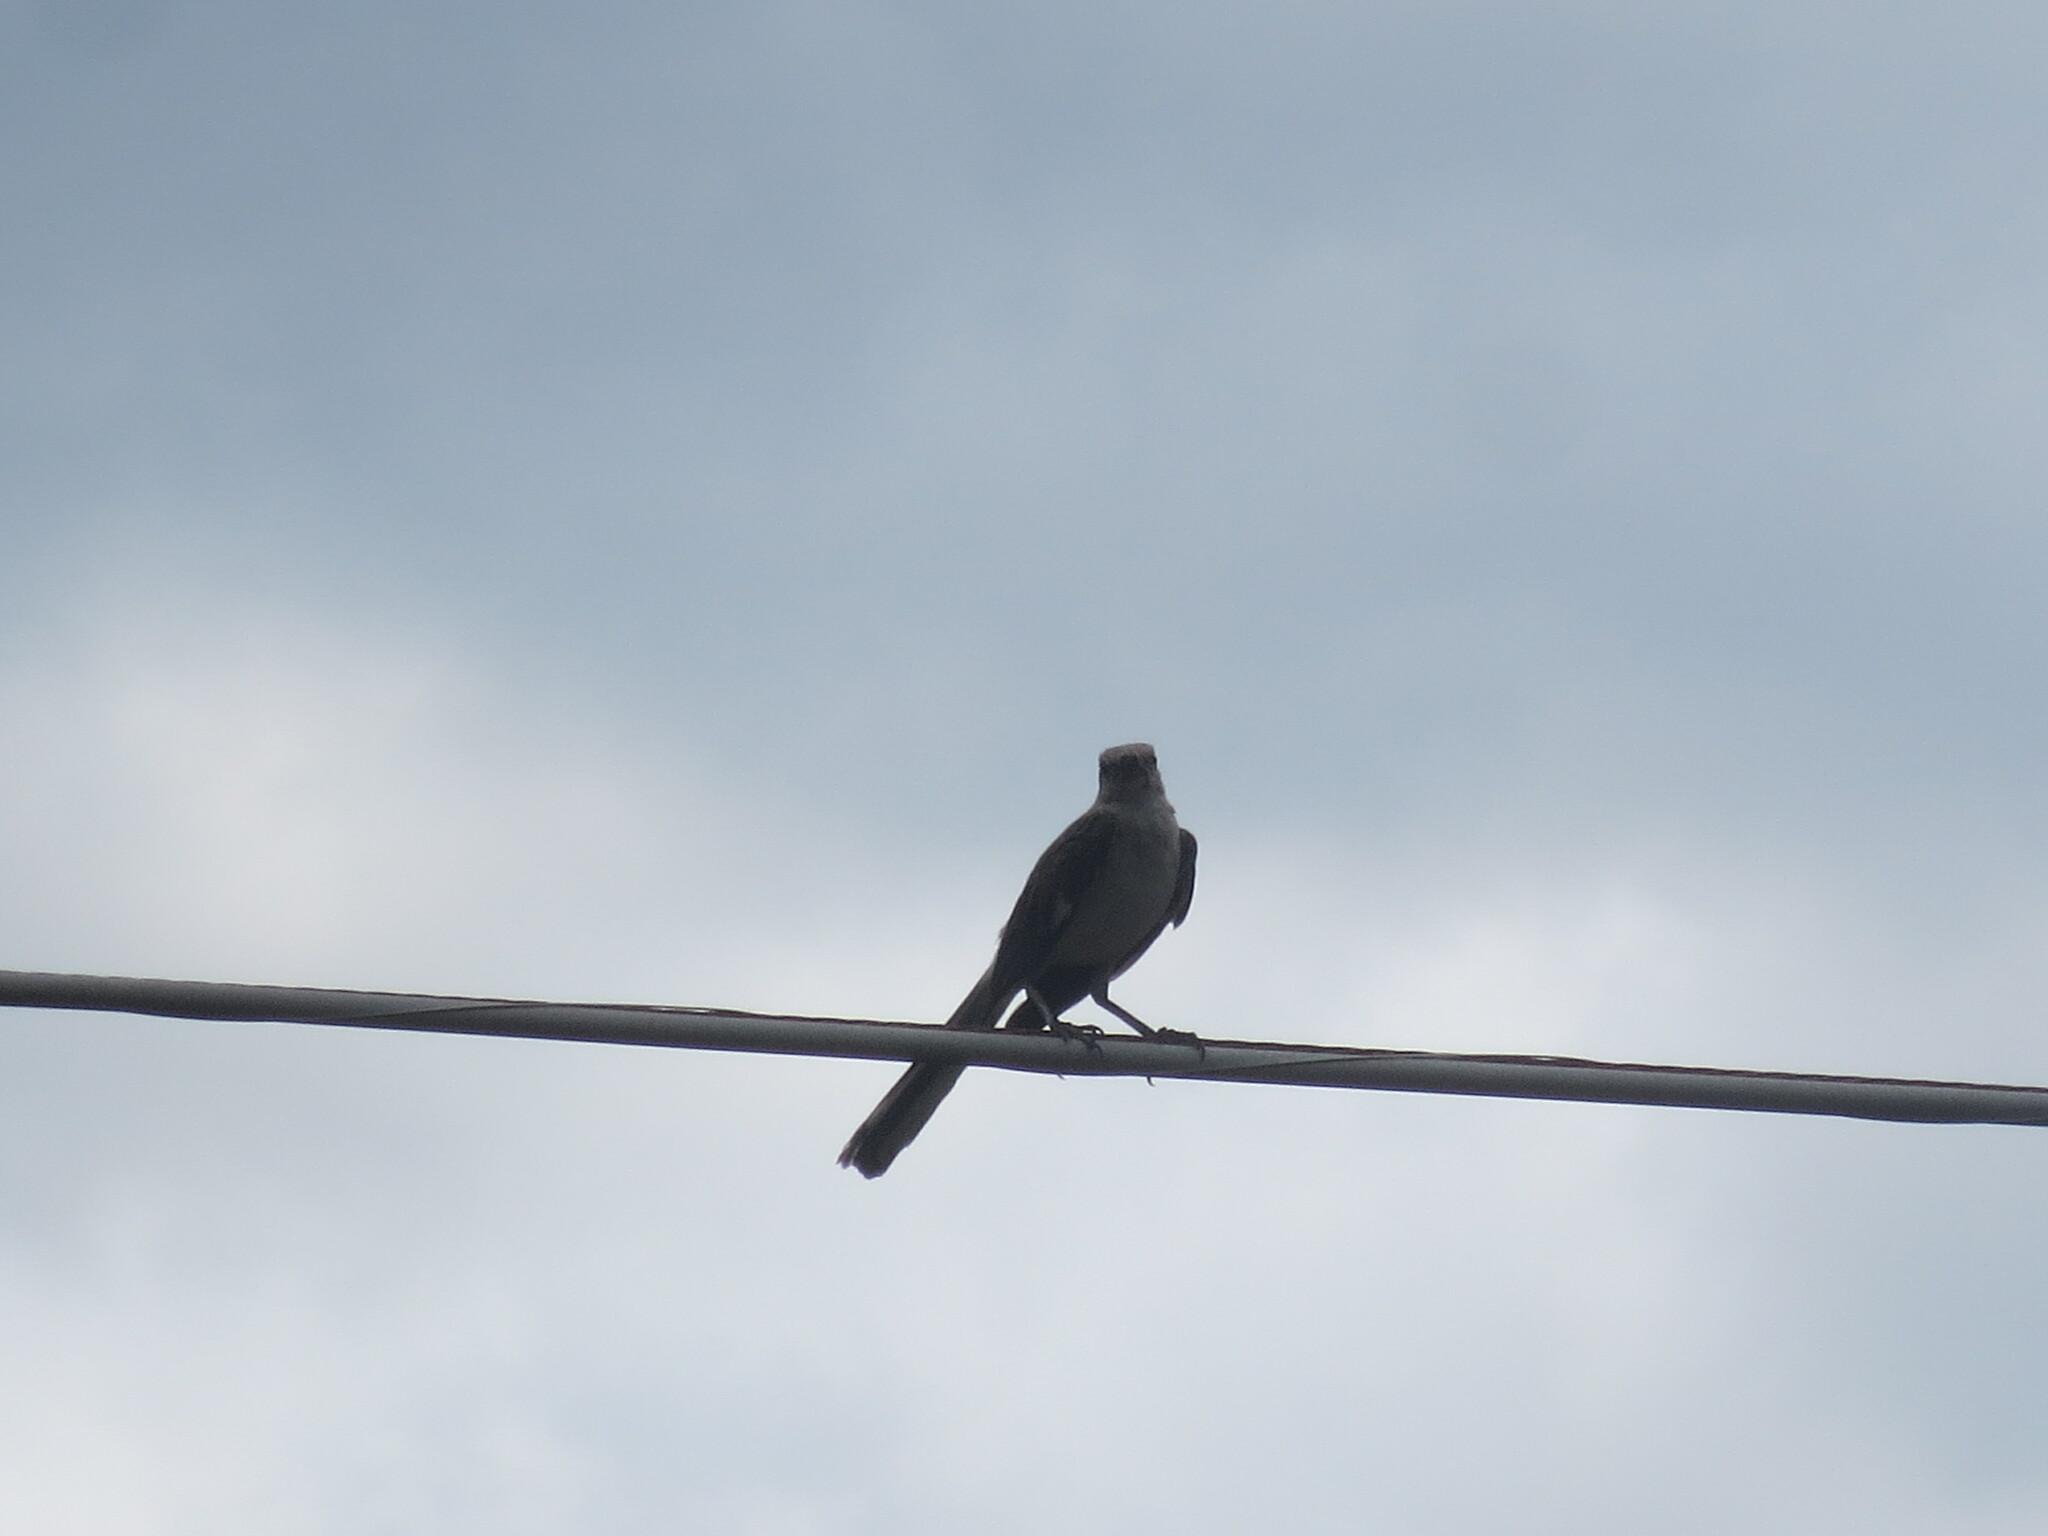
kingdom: Animalia
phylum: Chordata
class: Aves
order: Passeriformes
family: Mimidae
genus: Mimus
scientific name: Mimus polyglottos
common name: Northern mockingbird
